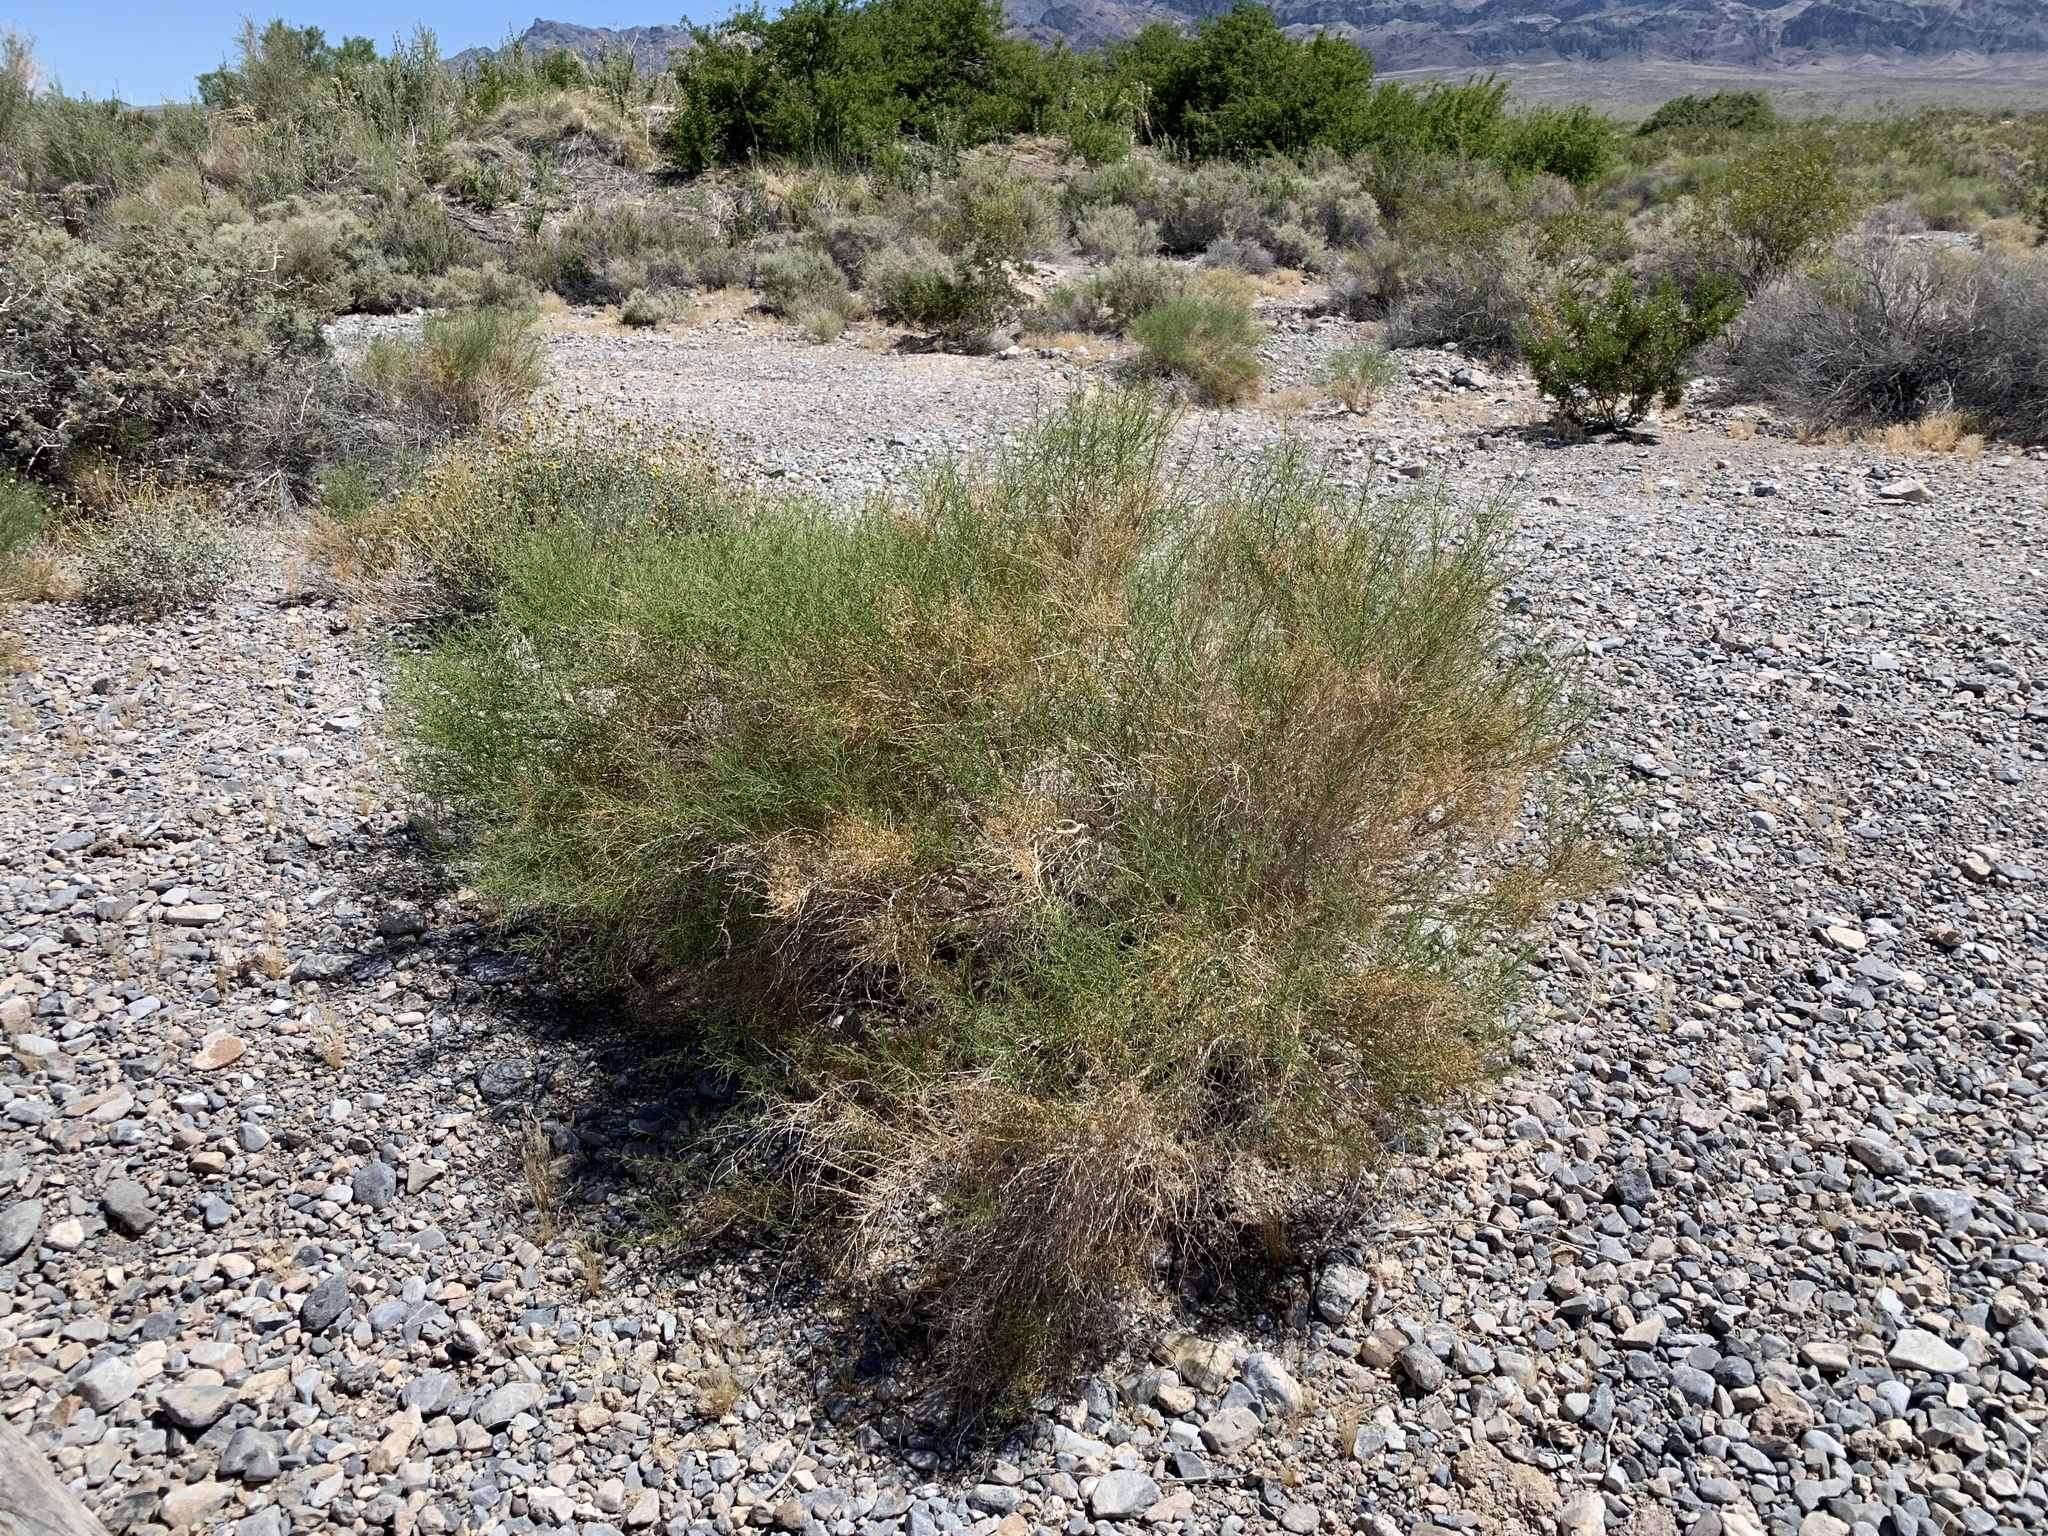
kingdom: Plantae
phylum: Tracheophyta
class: Magnoliopsida
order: Asterales
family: Asteraceae
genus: Ambrosia
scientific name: Ambrosia salsola
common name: Burrobrush
